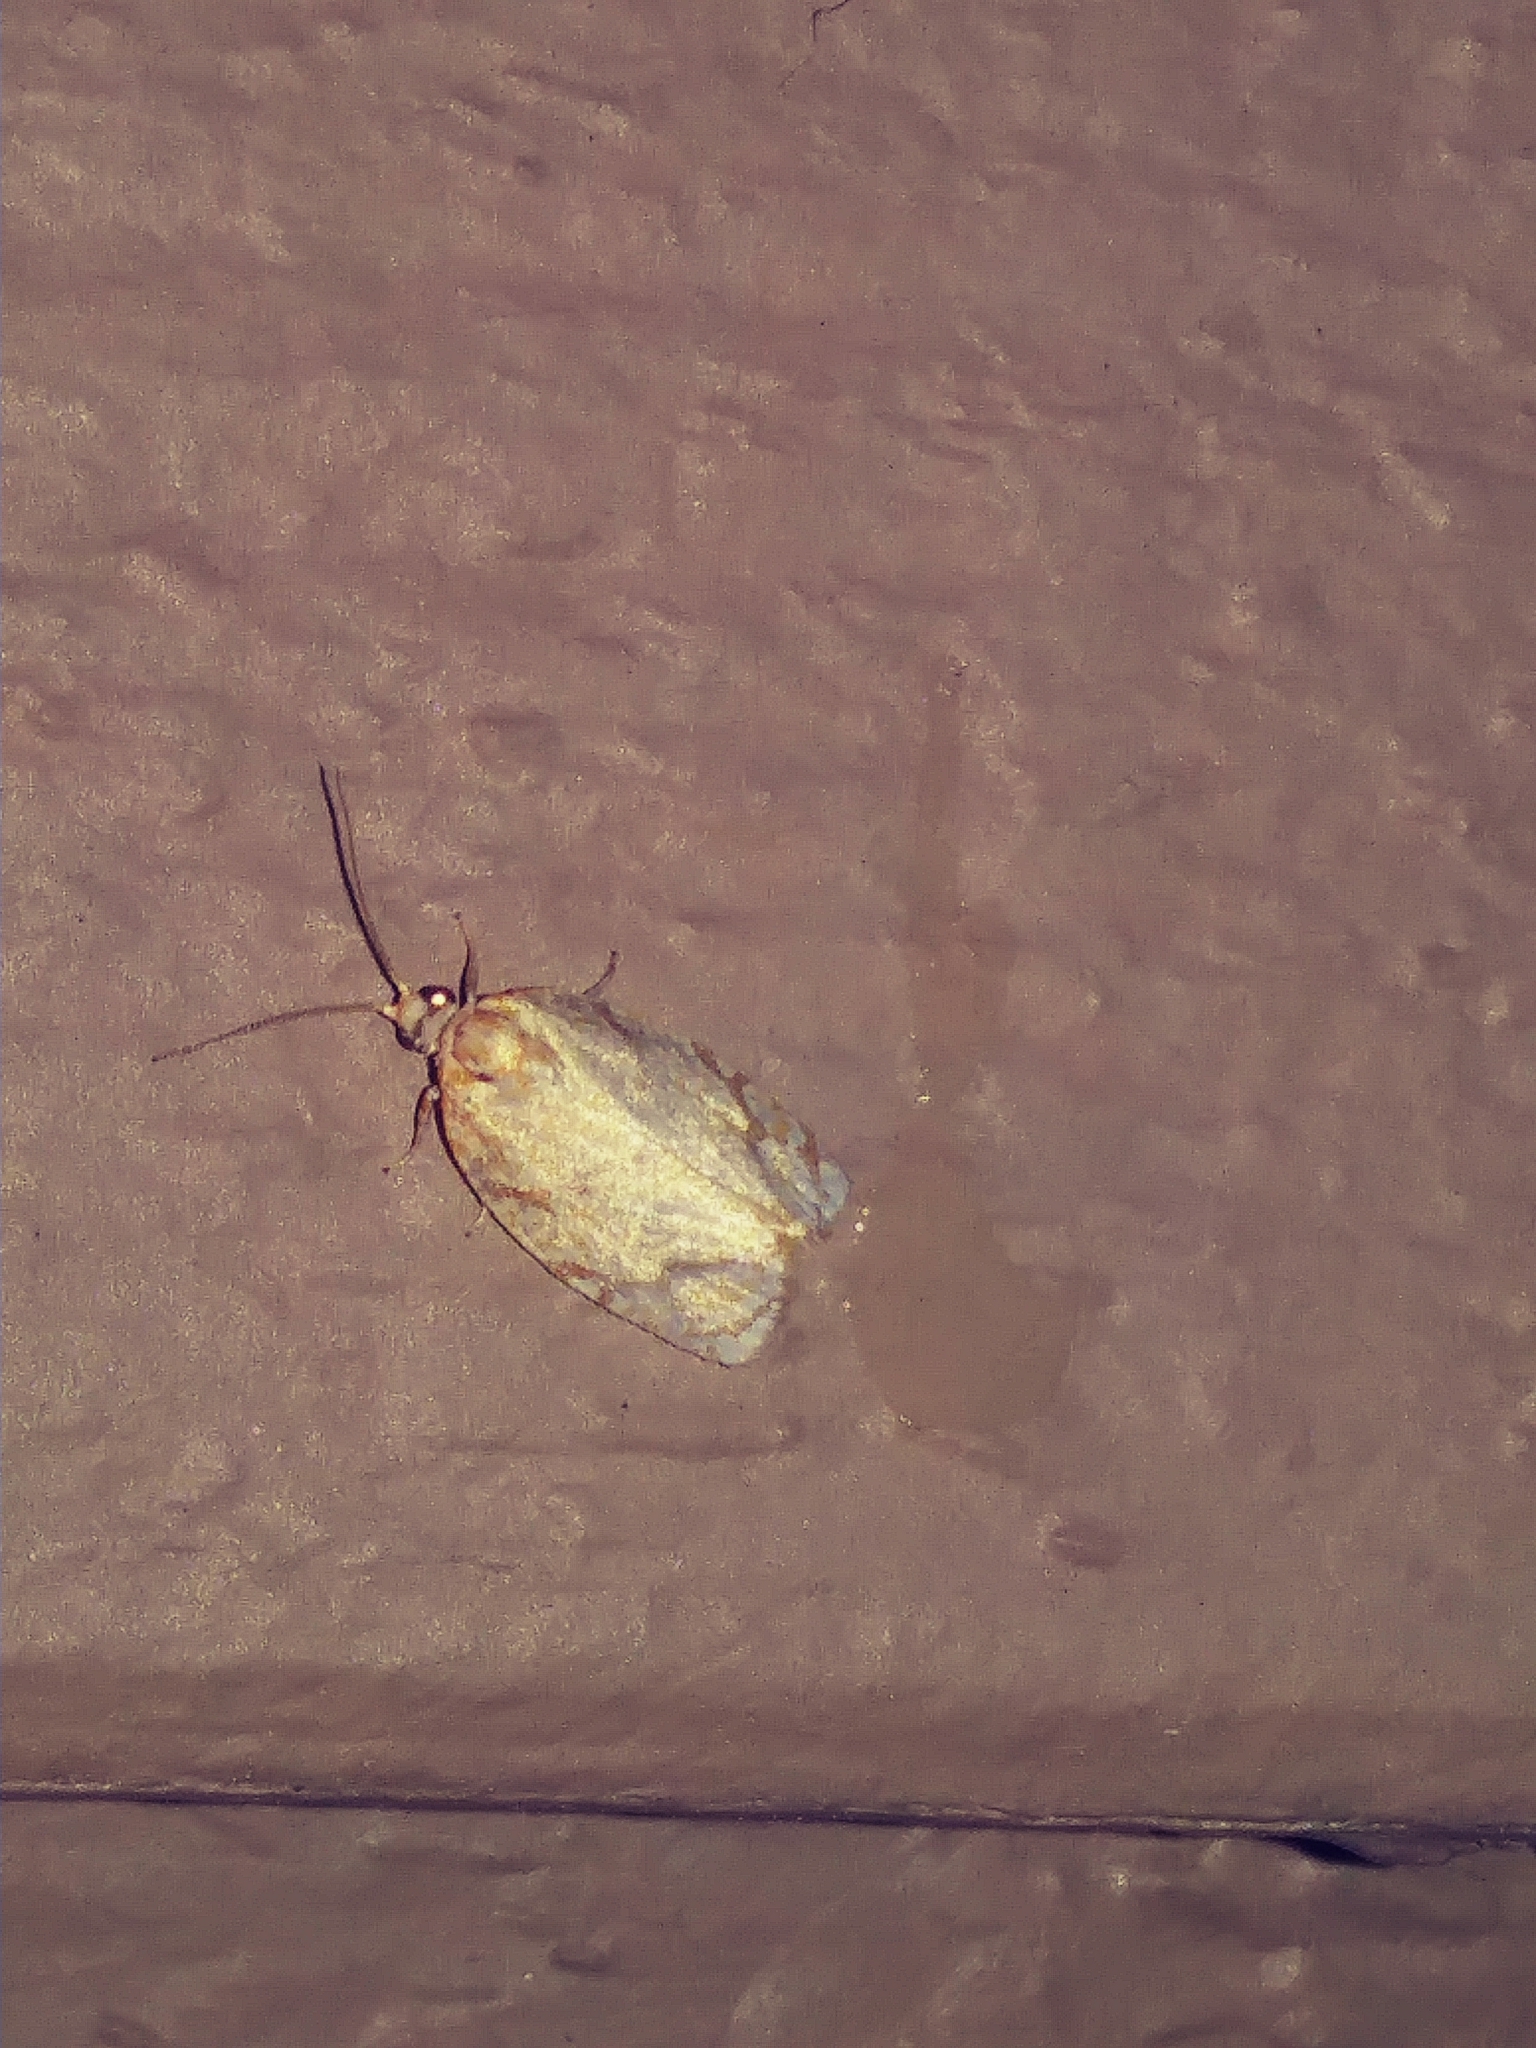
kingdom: Animalia
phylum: Arthropoda
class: Insecta
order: Lepidoptera
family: Tortricidae
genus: Argyrotaenia
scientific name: Argyrotaenia quercifoliana
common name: Yellow-winged oak leafroller moth
